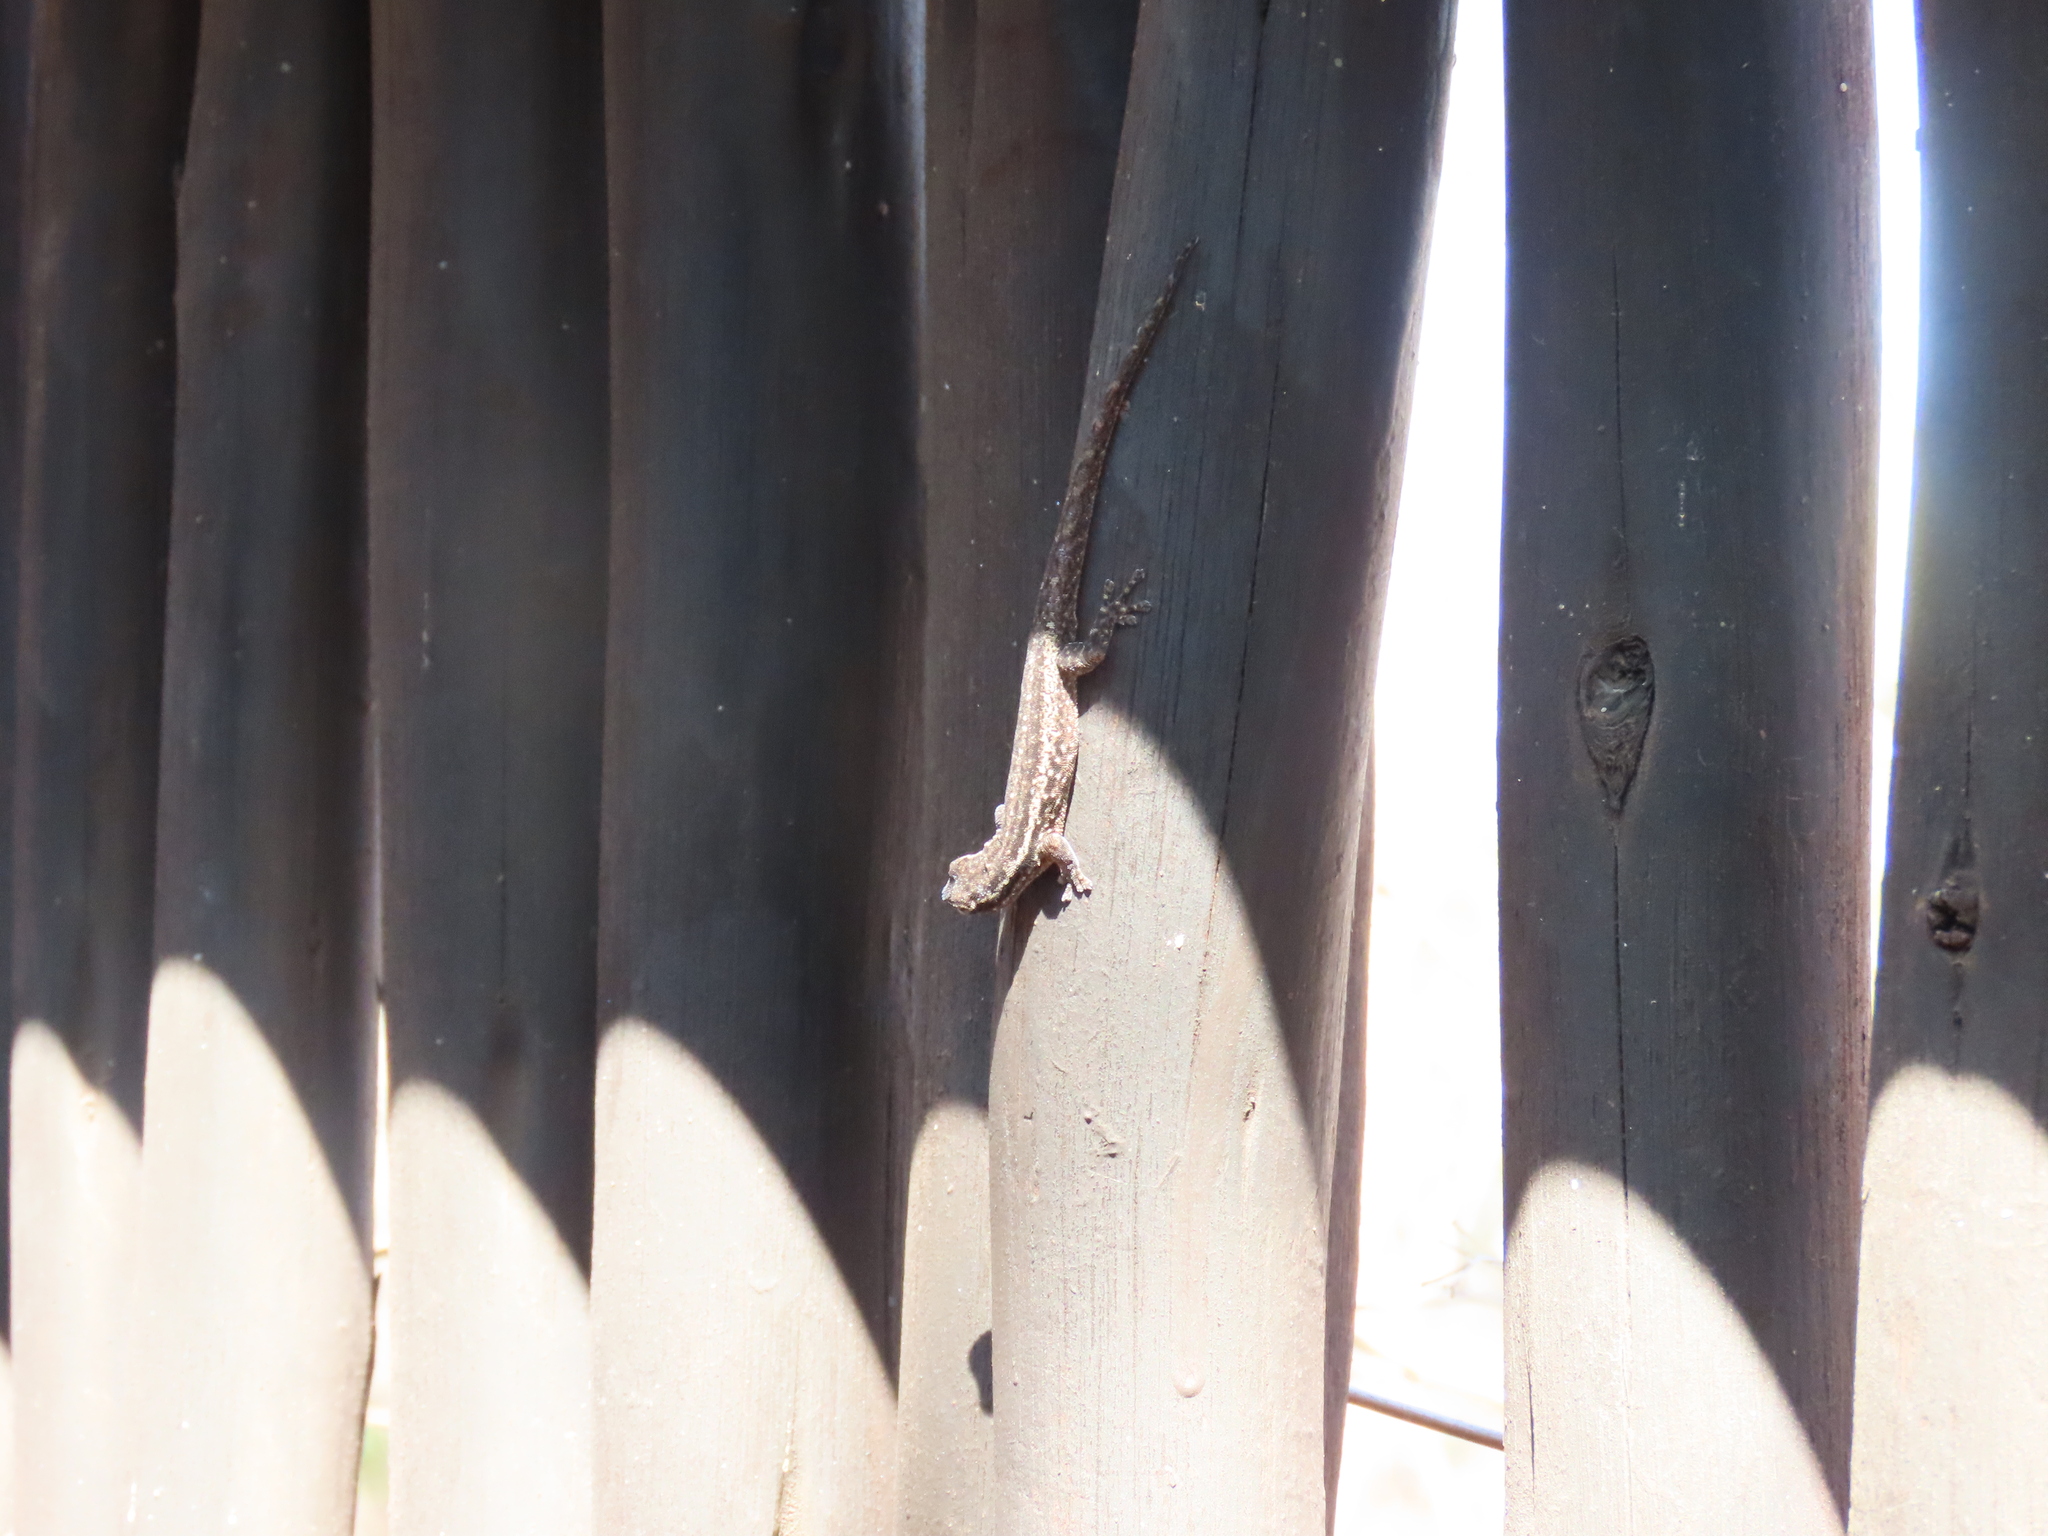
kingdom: Animalia
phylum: Chordata
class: Squamata
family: Gekkonidae
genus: Lygodactylus
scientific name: Lygodactylus capensis
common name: Cape dwarf gecko
